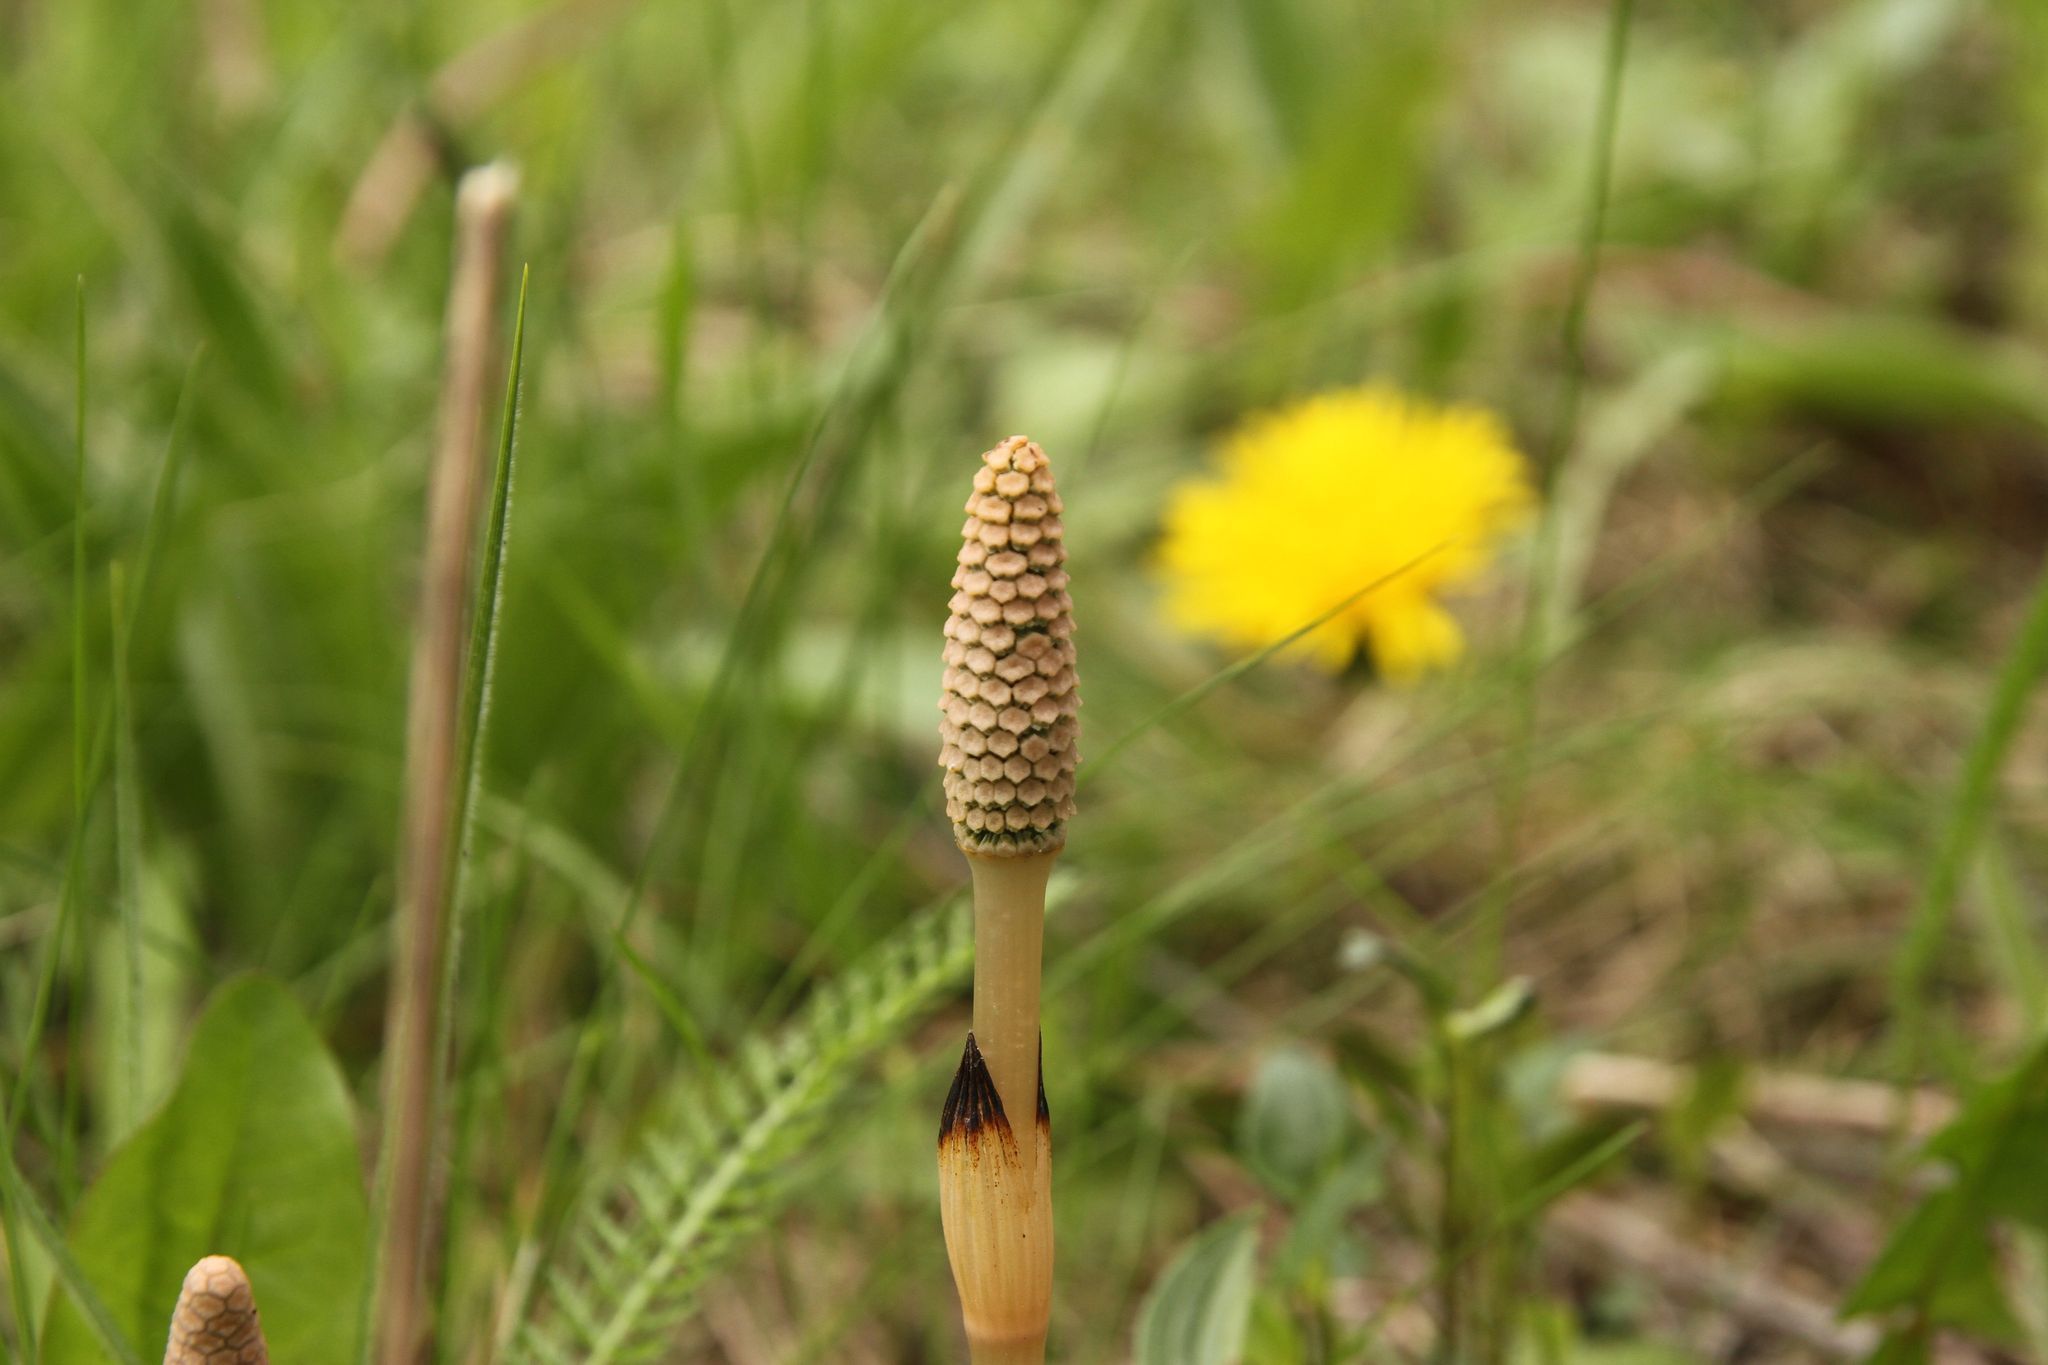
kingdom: Plantae
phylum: Tracheophyta
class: Polypodiopsida
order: Equisetales
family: Equisetaceae
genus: Equisetum
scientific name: Equisetum arvense
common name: Field horsetail
